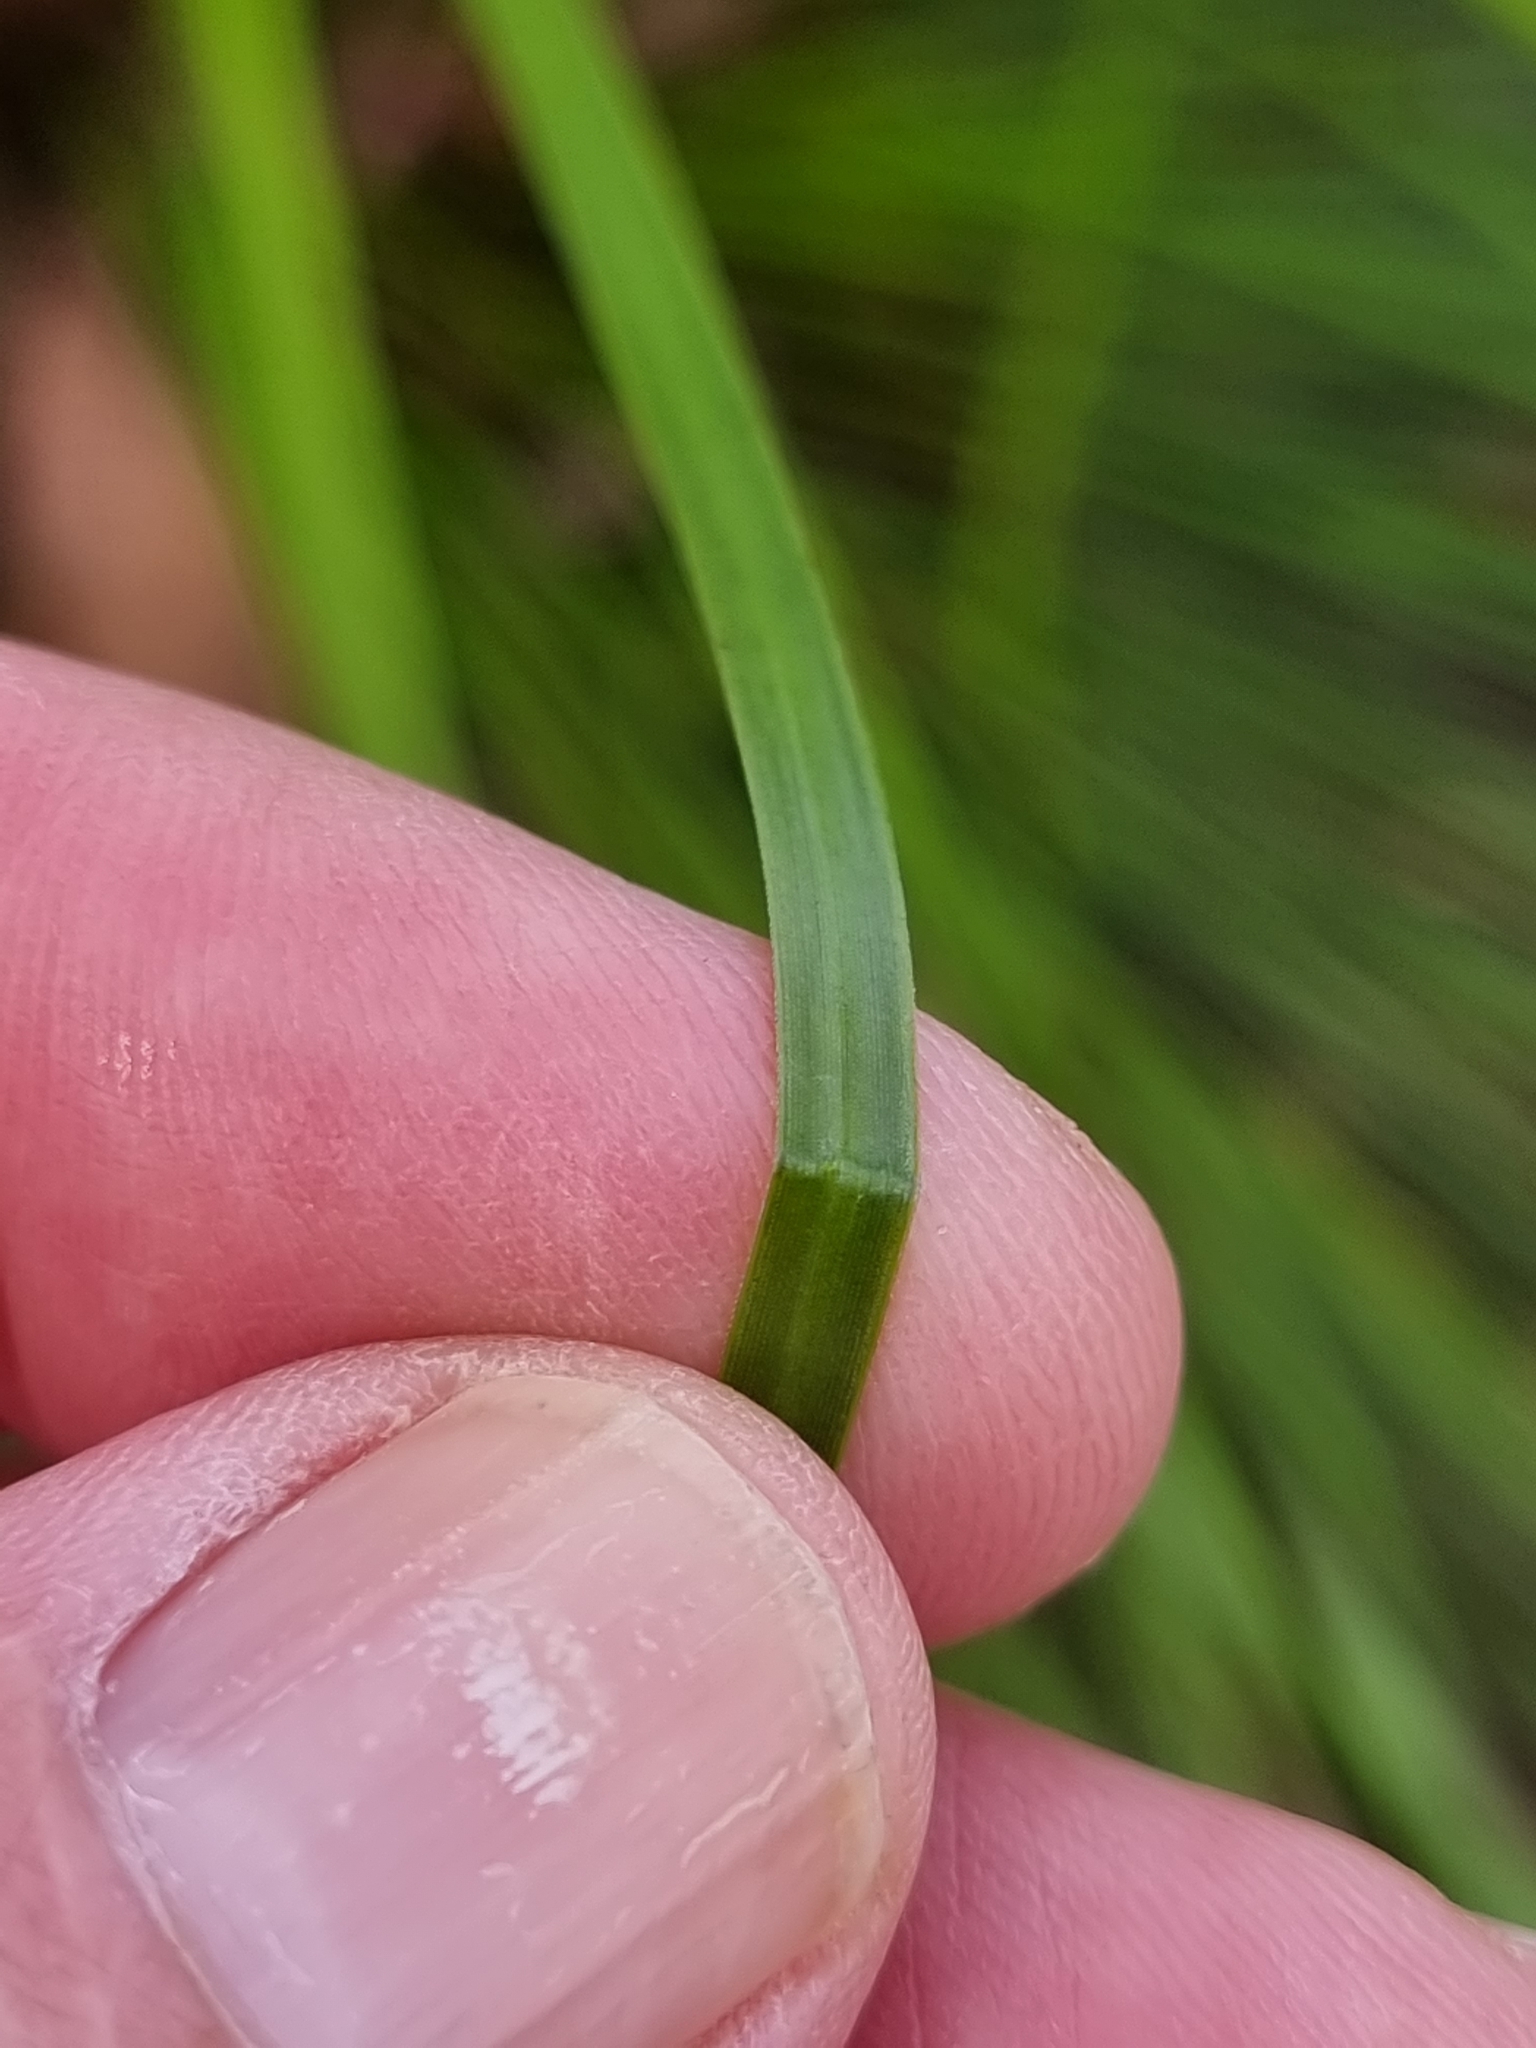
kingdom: Plantae
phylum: Tracheophyta
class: Liliopsida
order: Asparagales
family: Asphodelaceae
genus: Xanthorrhoea
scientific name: Xanthorrhoea latifolia
